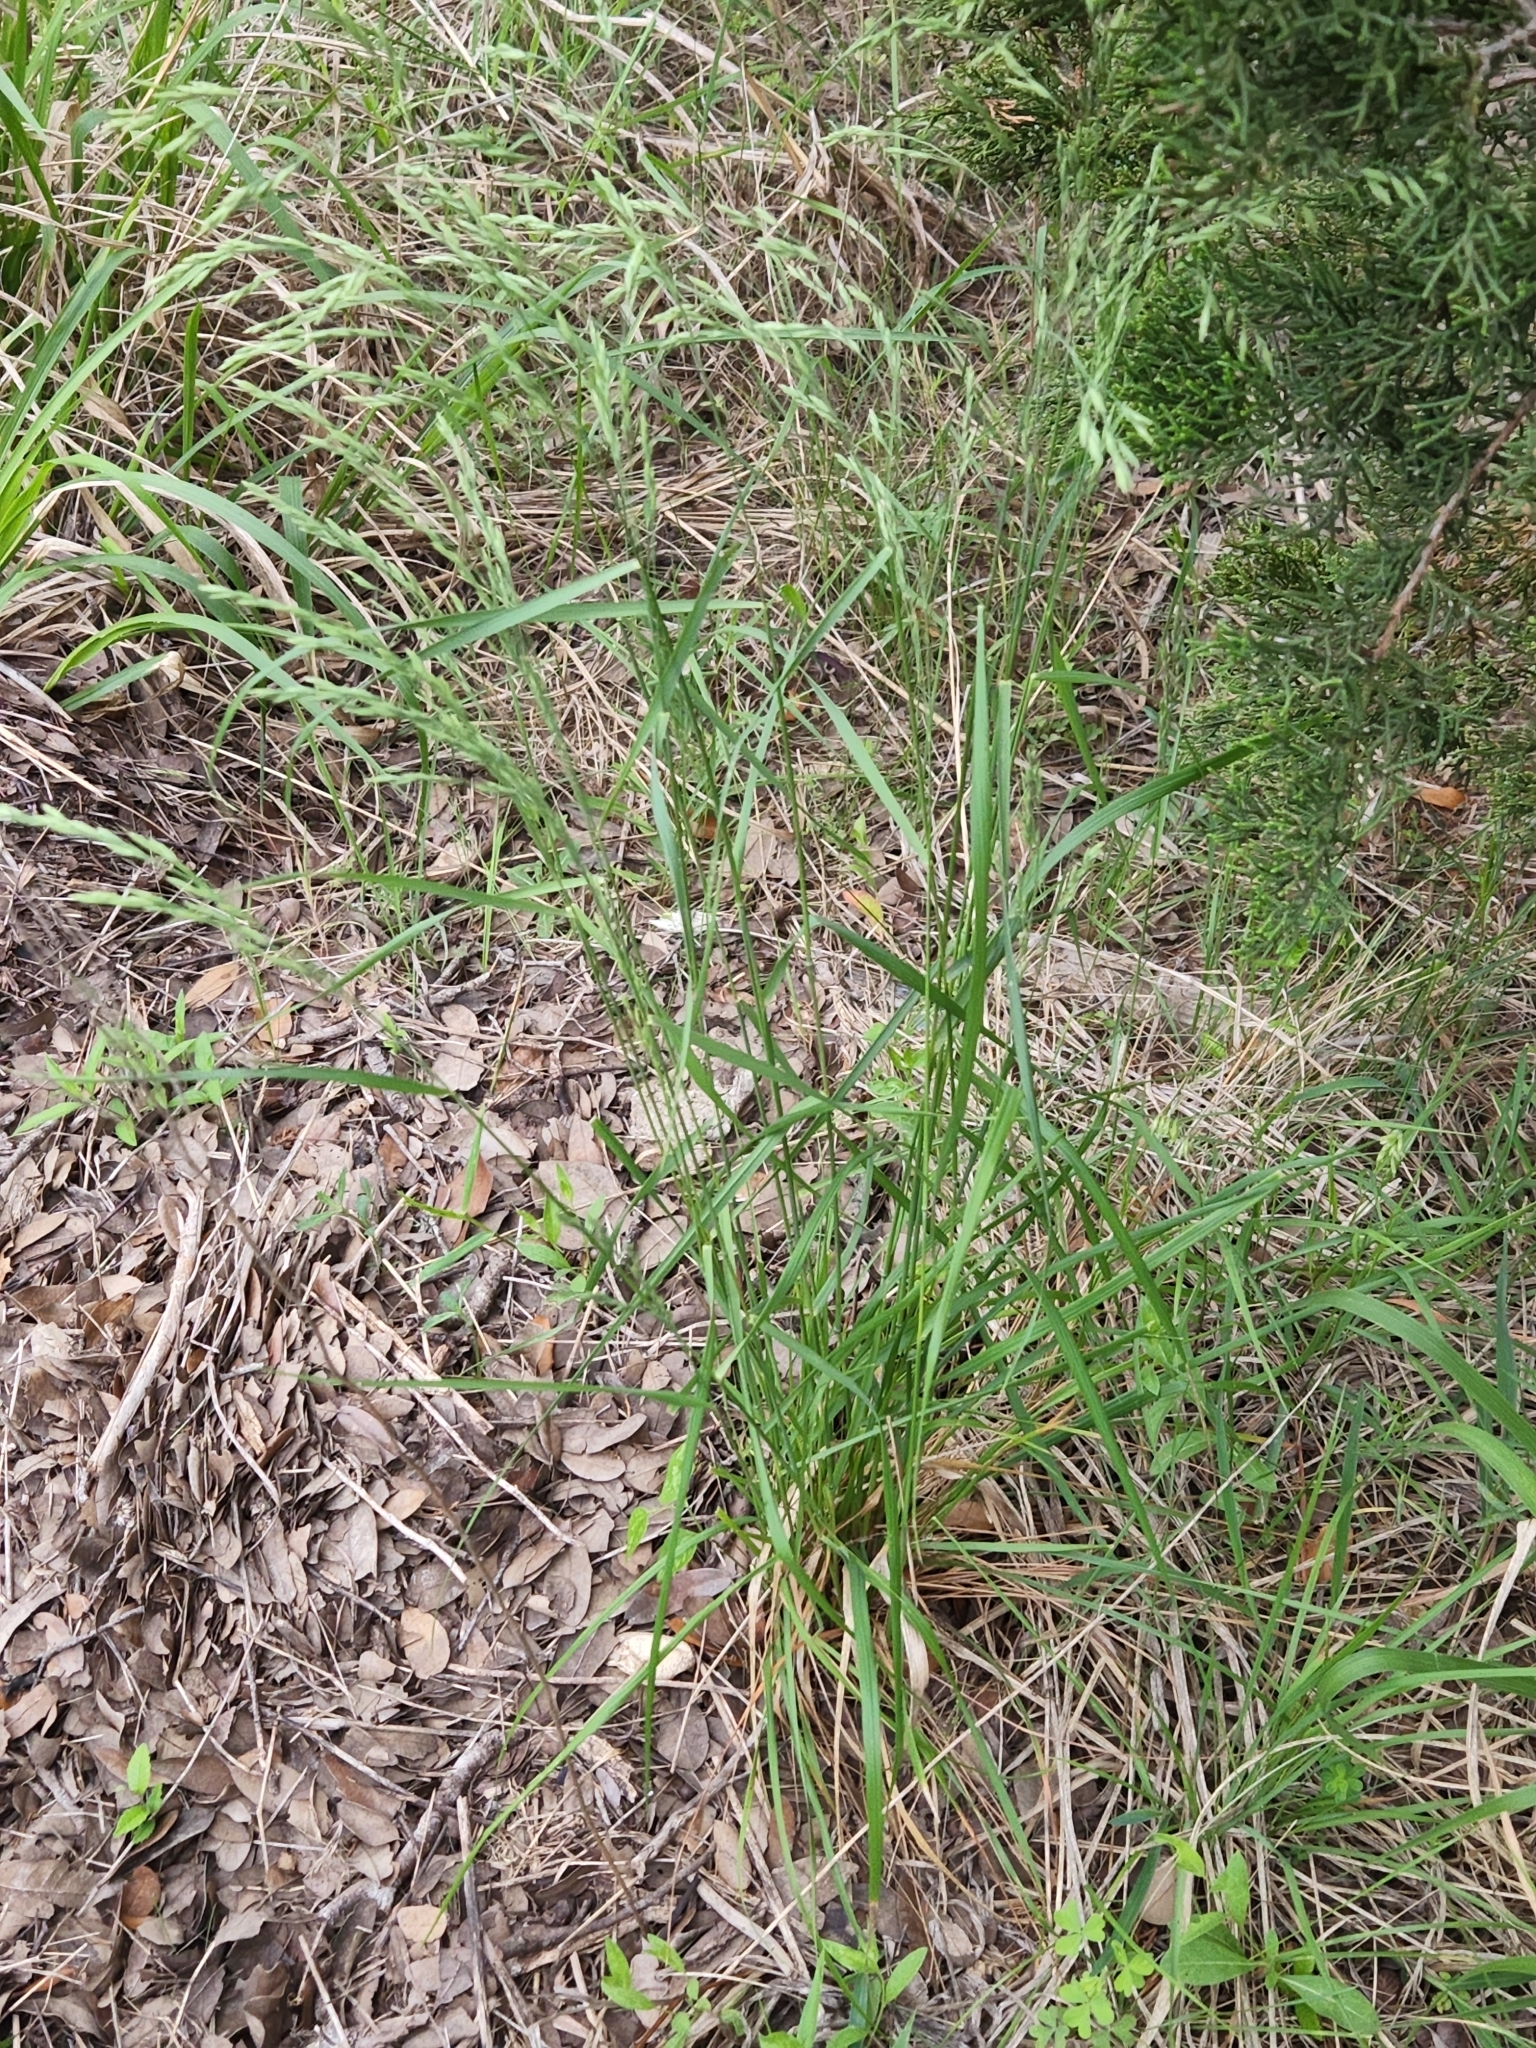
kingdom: Plantae
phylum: Tracheophyta
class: Liliopsida
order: Poales
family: Poaceae
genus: Festuca
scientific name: Festuca versuta
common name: Texas fescue
